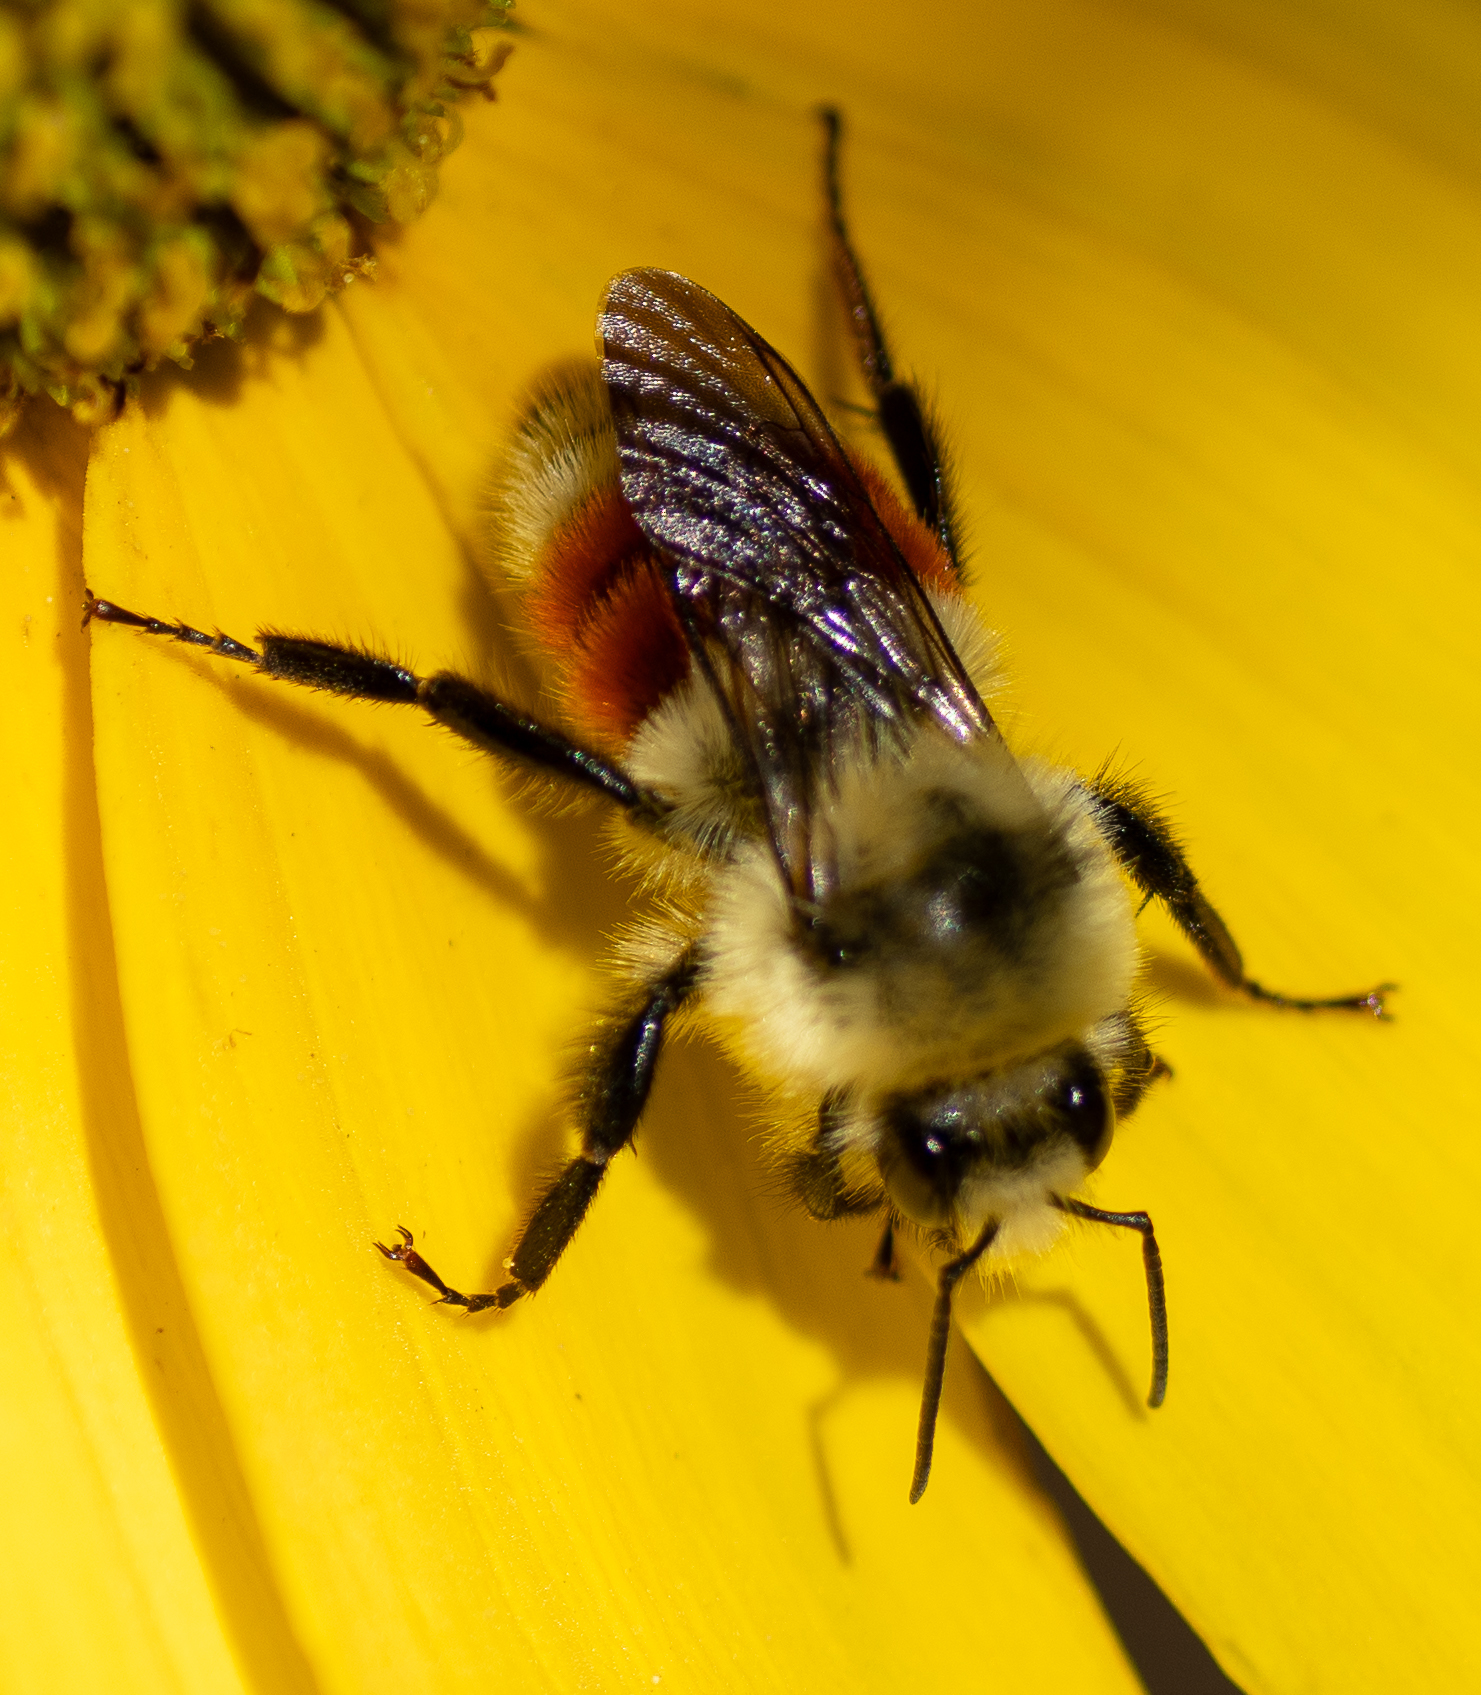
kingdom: Animalia
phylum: Arthropoda
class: Insecta
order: Hymenoptera
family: Apidae
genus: Bombus
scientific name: Bombus huntii
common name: Hunt bumble bee
